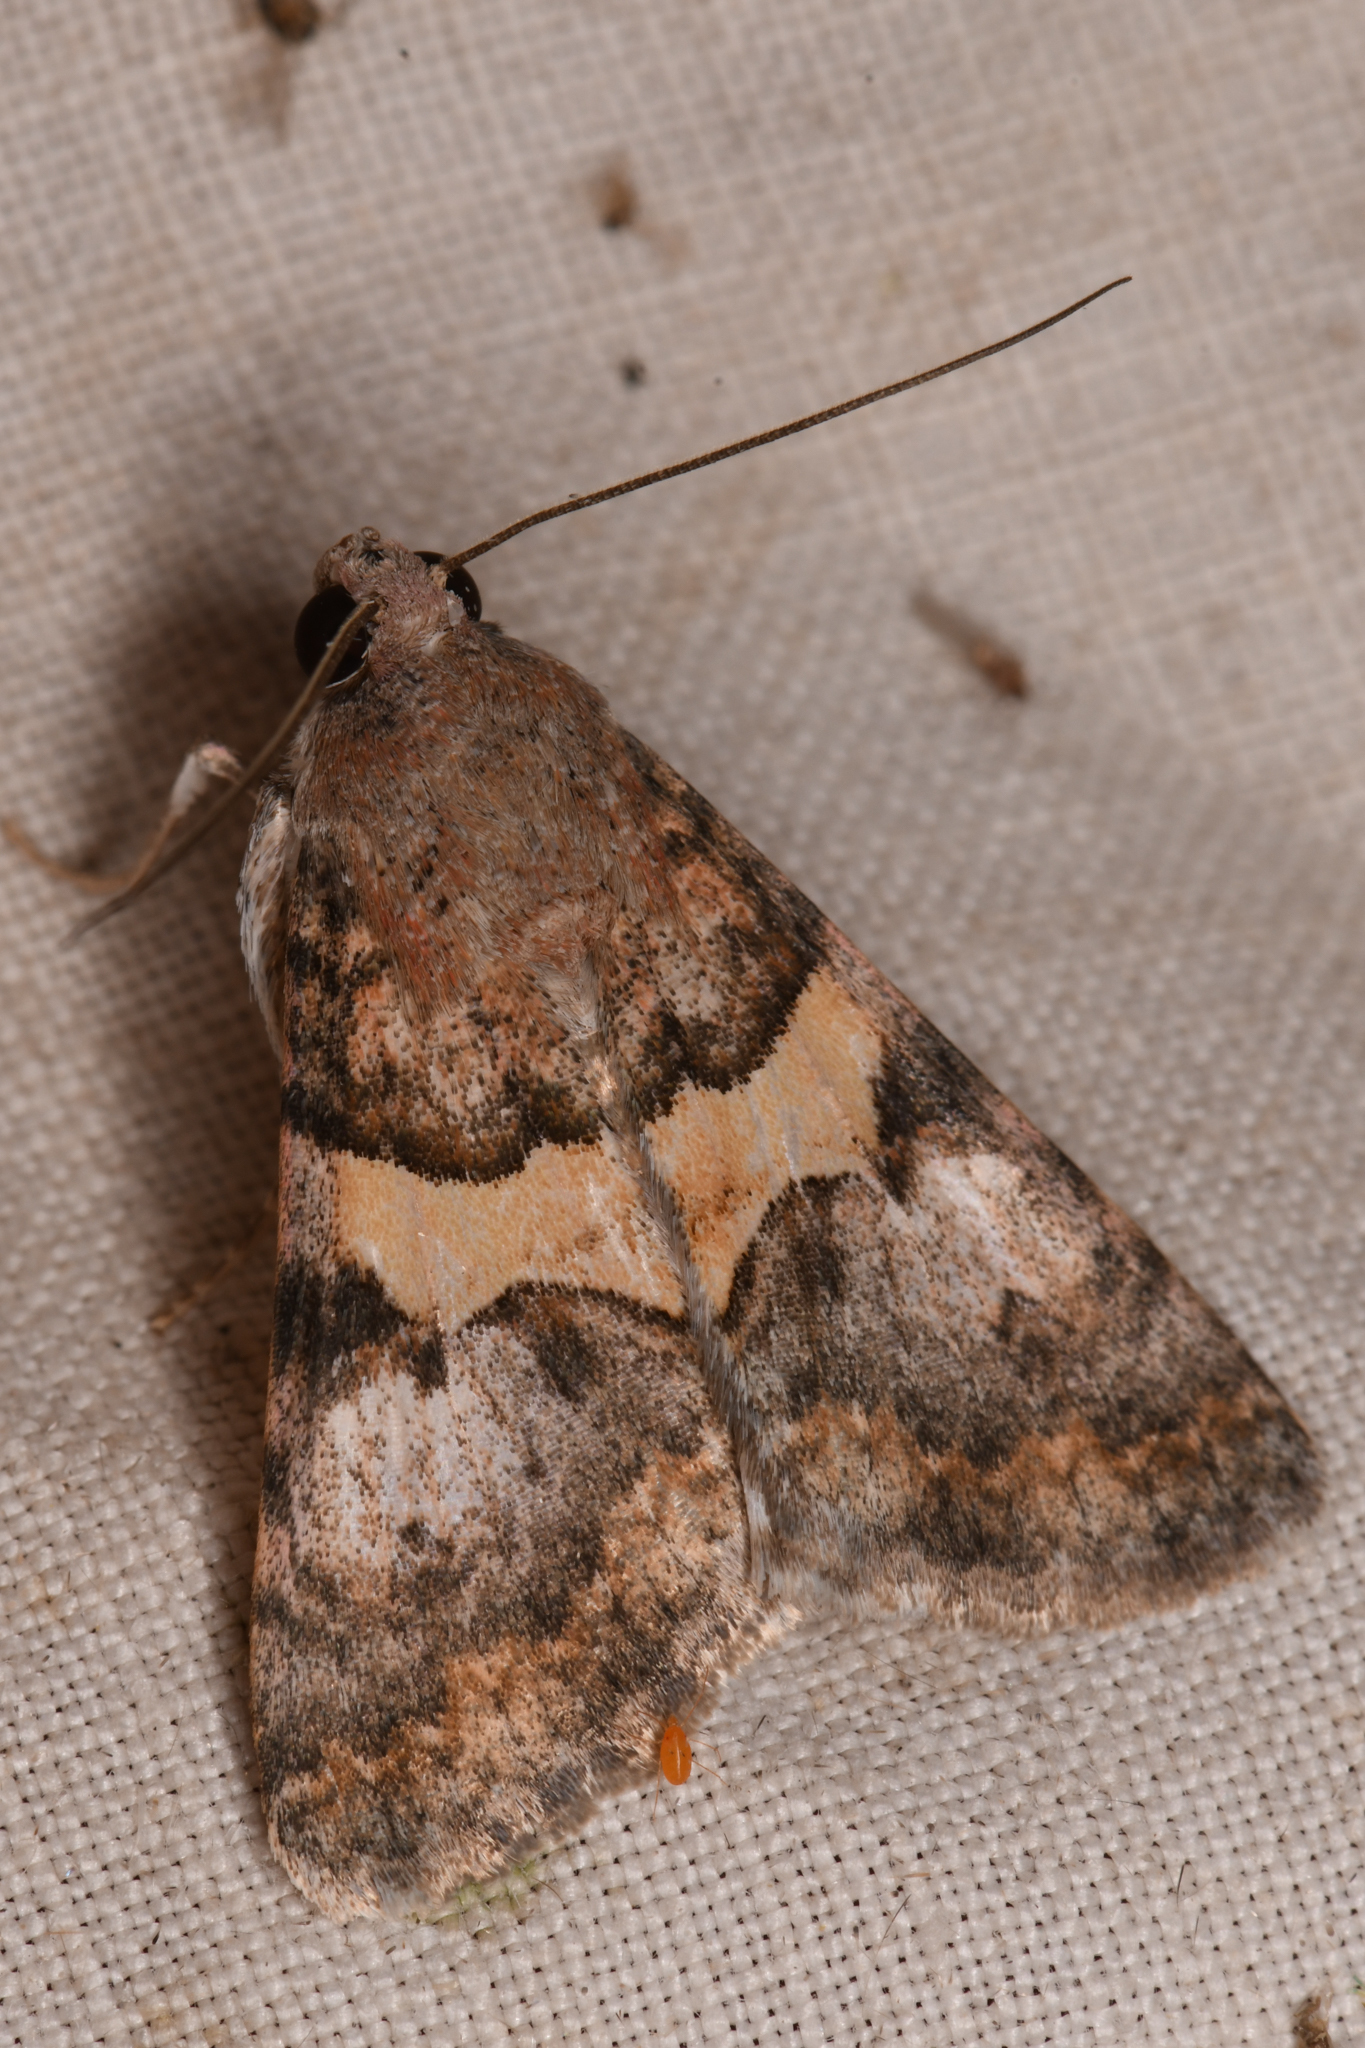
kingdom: Animalia
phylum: Arthropoda
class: Insecta
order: Lepidoptera
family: Erebidae
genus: Melipotis
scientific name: Melipotis jucunda
